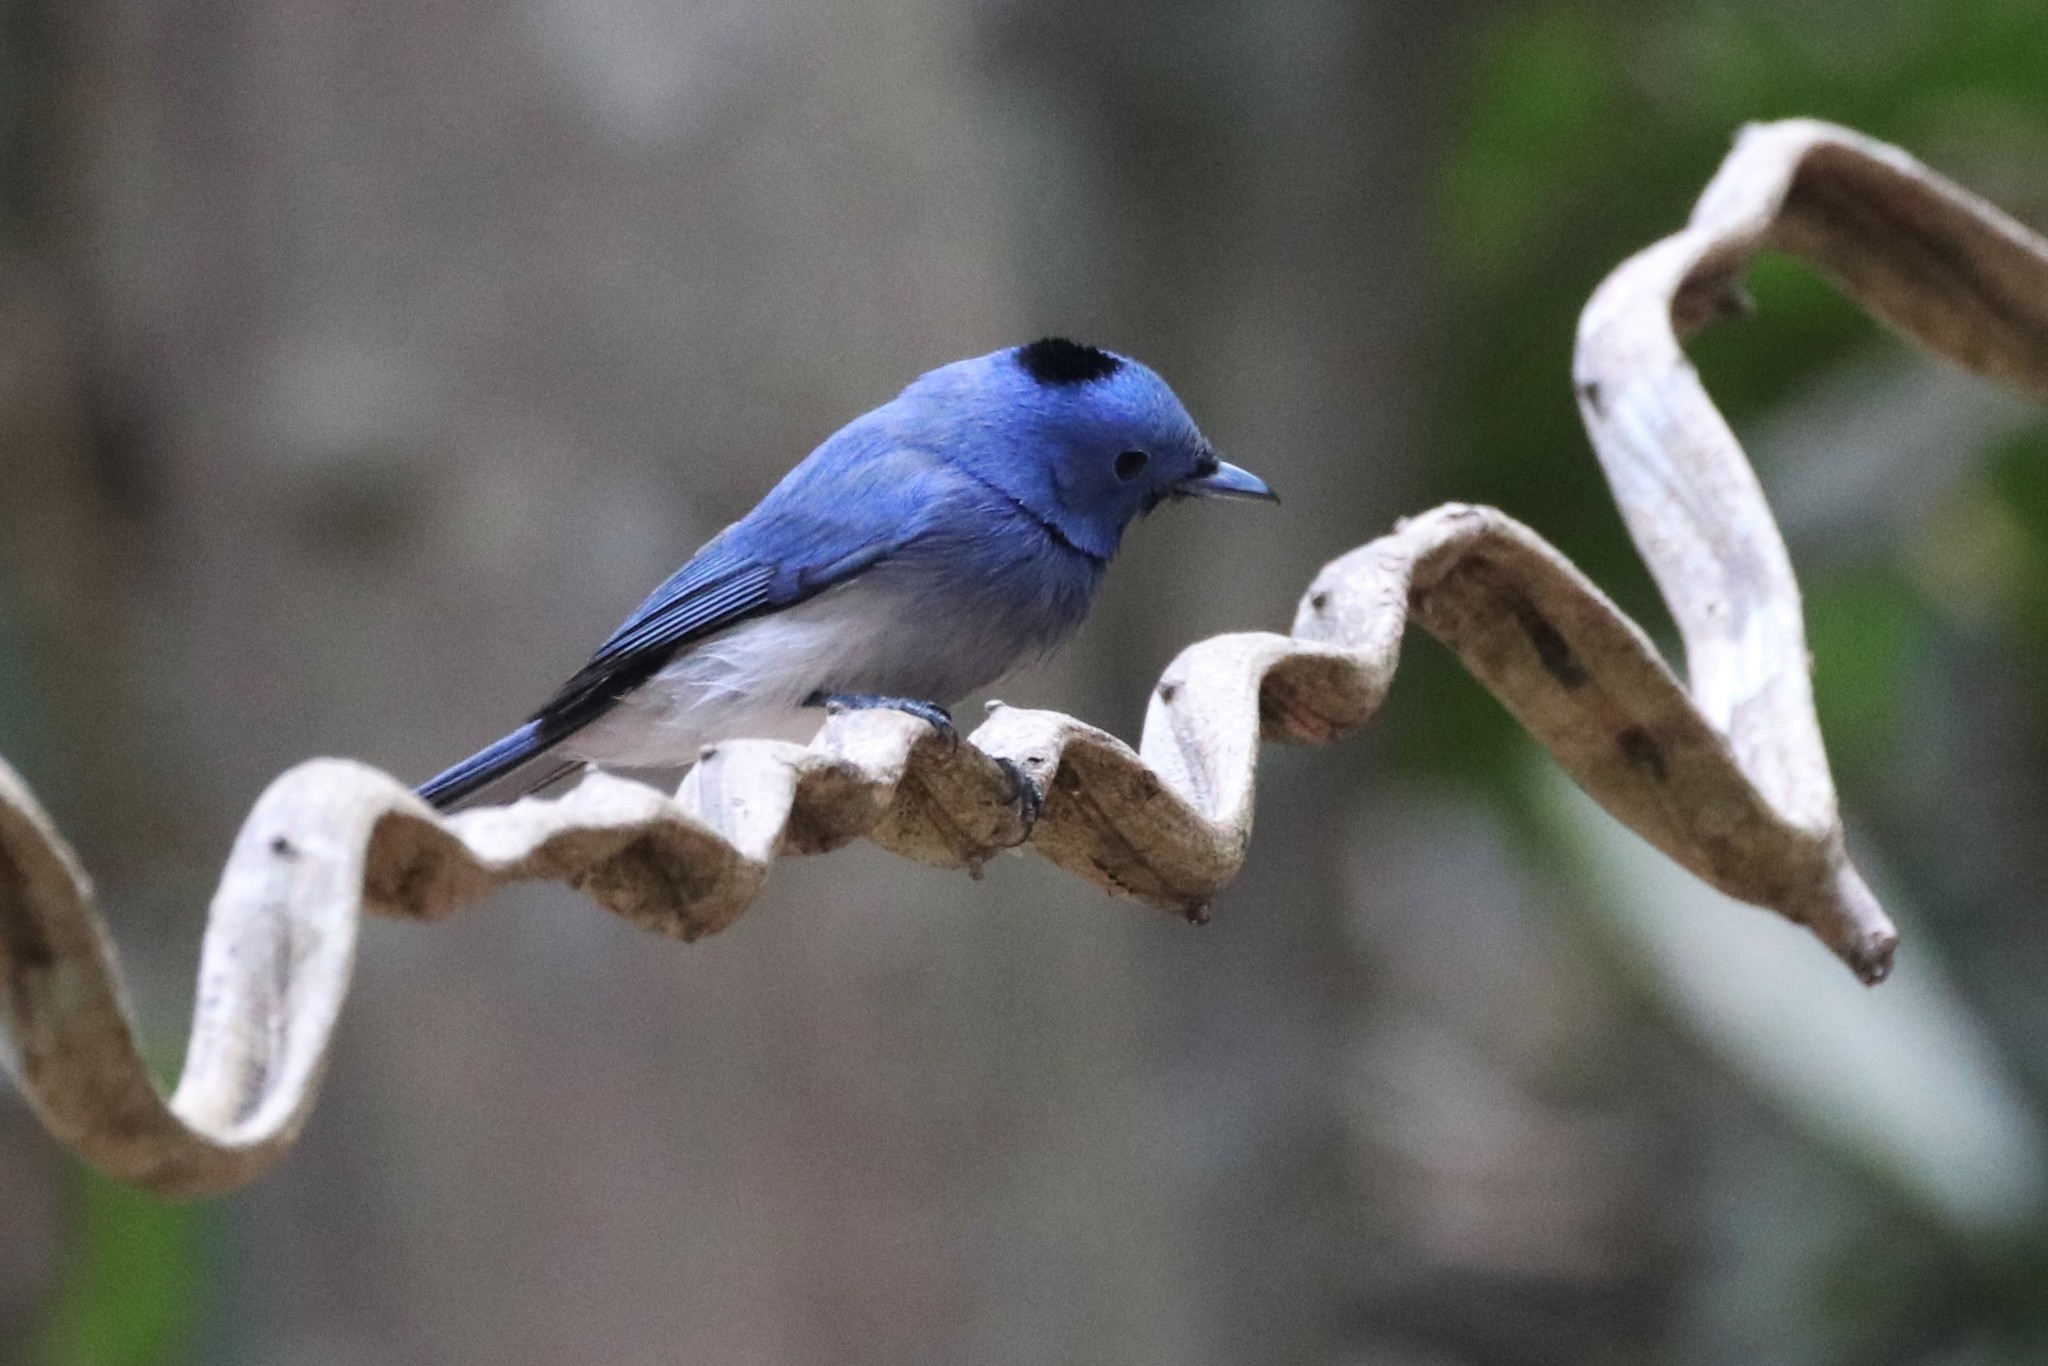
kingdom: Animalia
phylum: Chordata
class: Aves
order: Passeriformes
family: Monarchidae
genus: Hypothymis
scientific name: Hypothymis azurea
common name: Black-naped monarch
